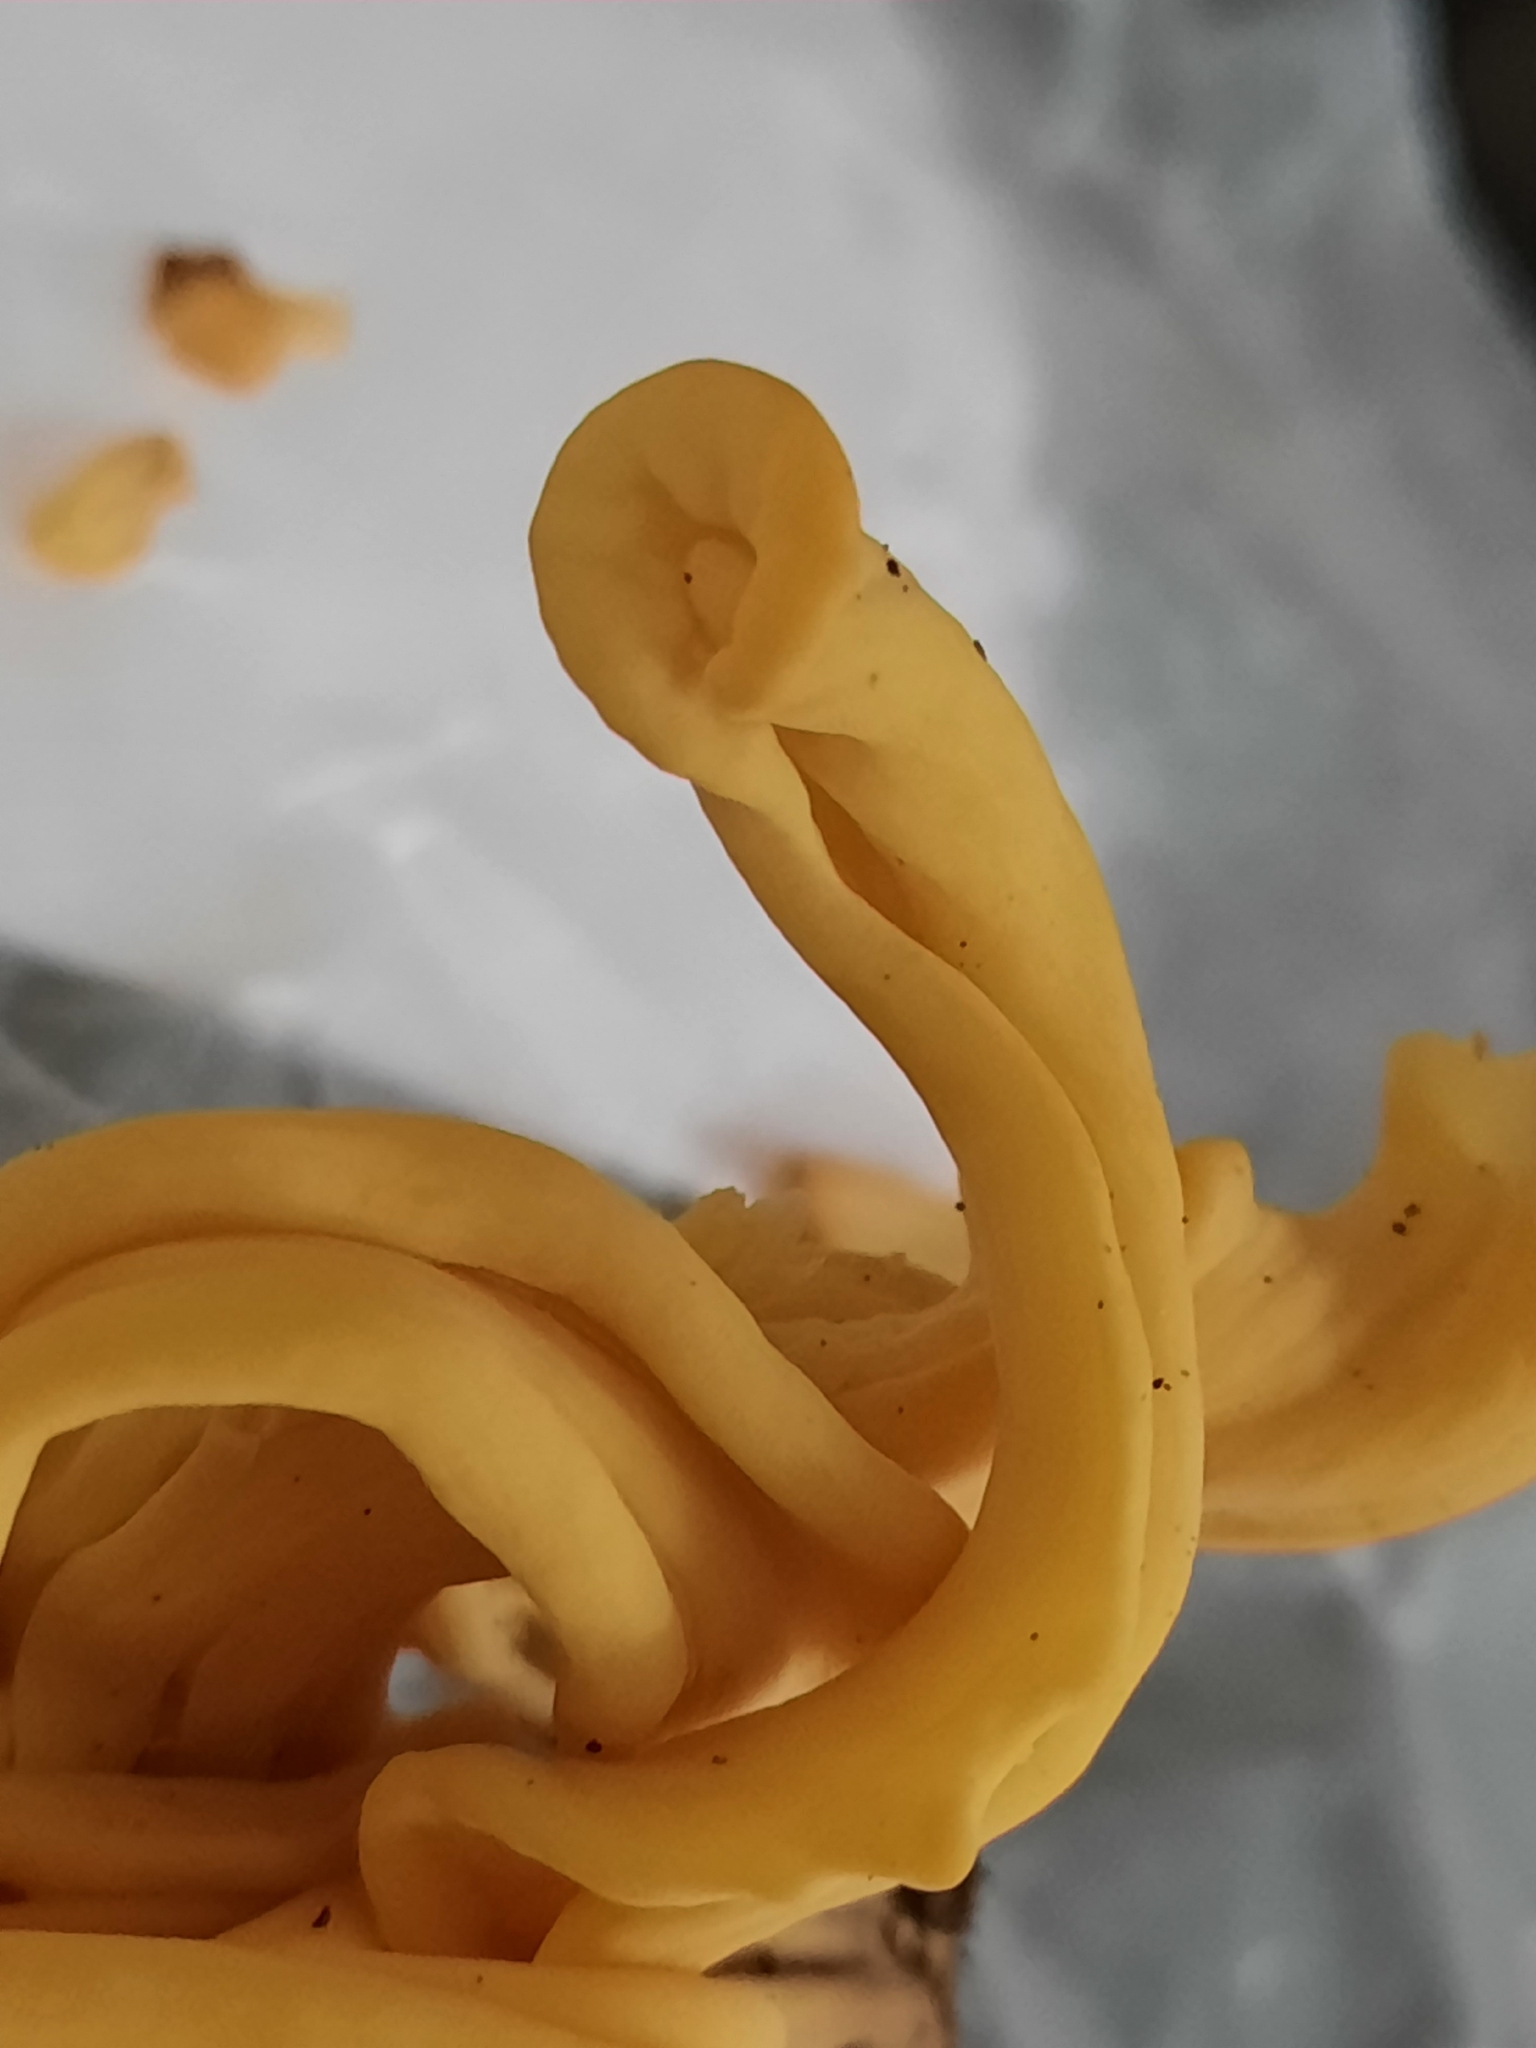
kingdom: Fungi
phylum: Basidiomycota
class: Agaricomycetes
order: Agaricales
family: Clavariaceae
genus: Clavulinopsis
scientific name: Clavulinopsis fusiformis
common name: Golden spindles
